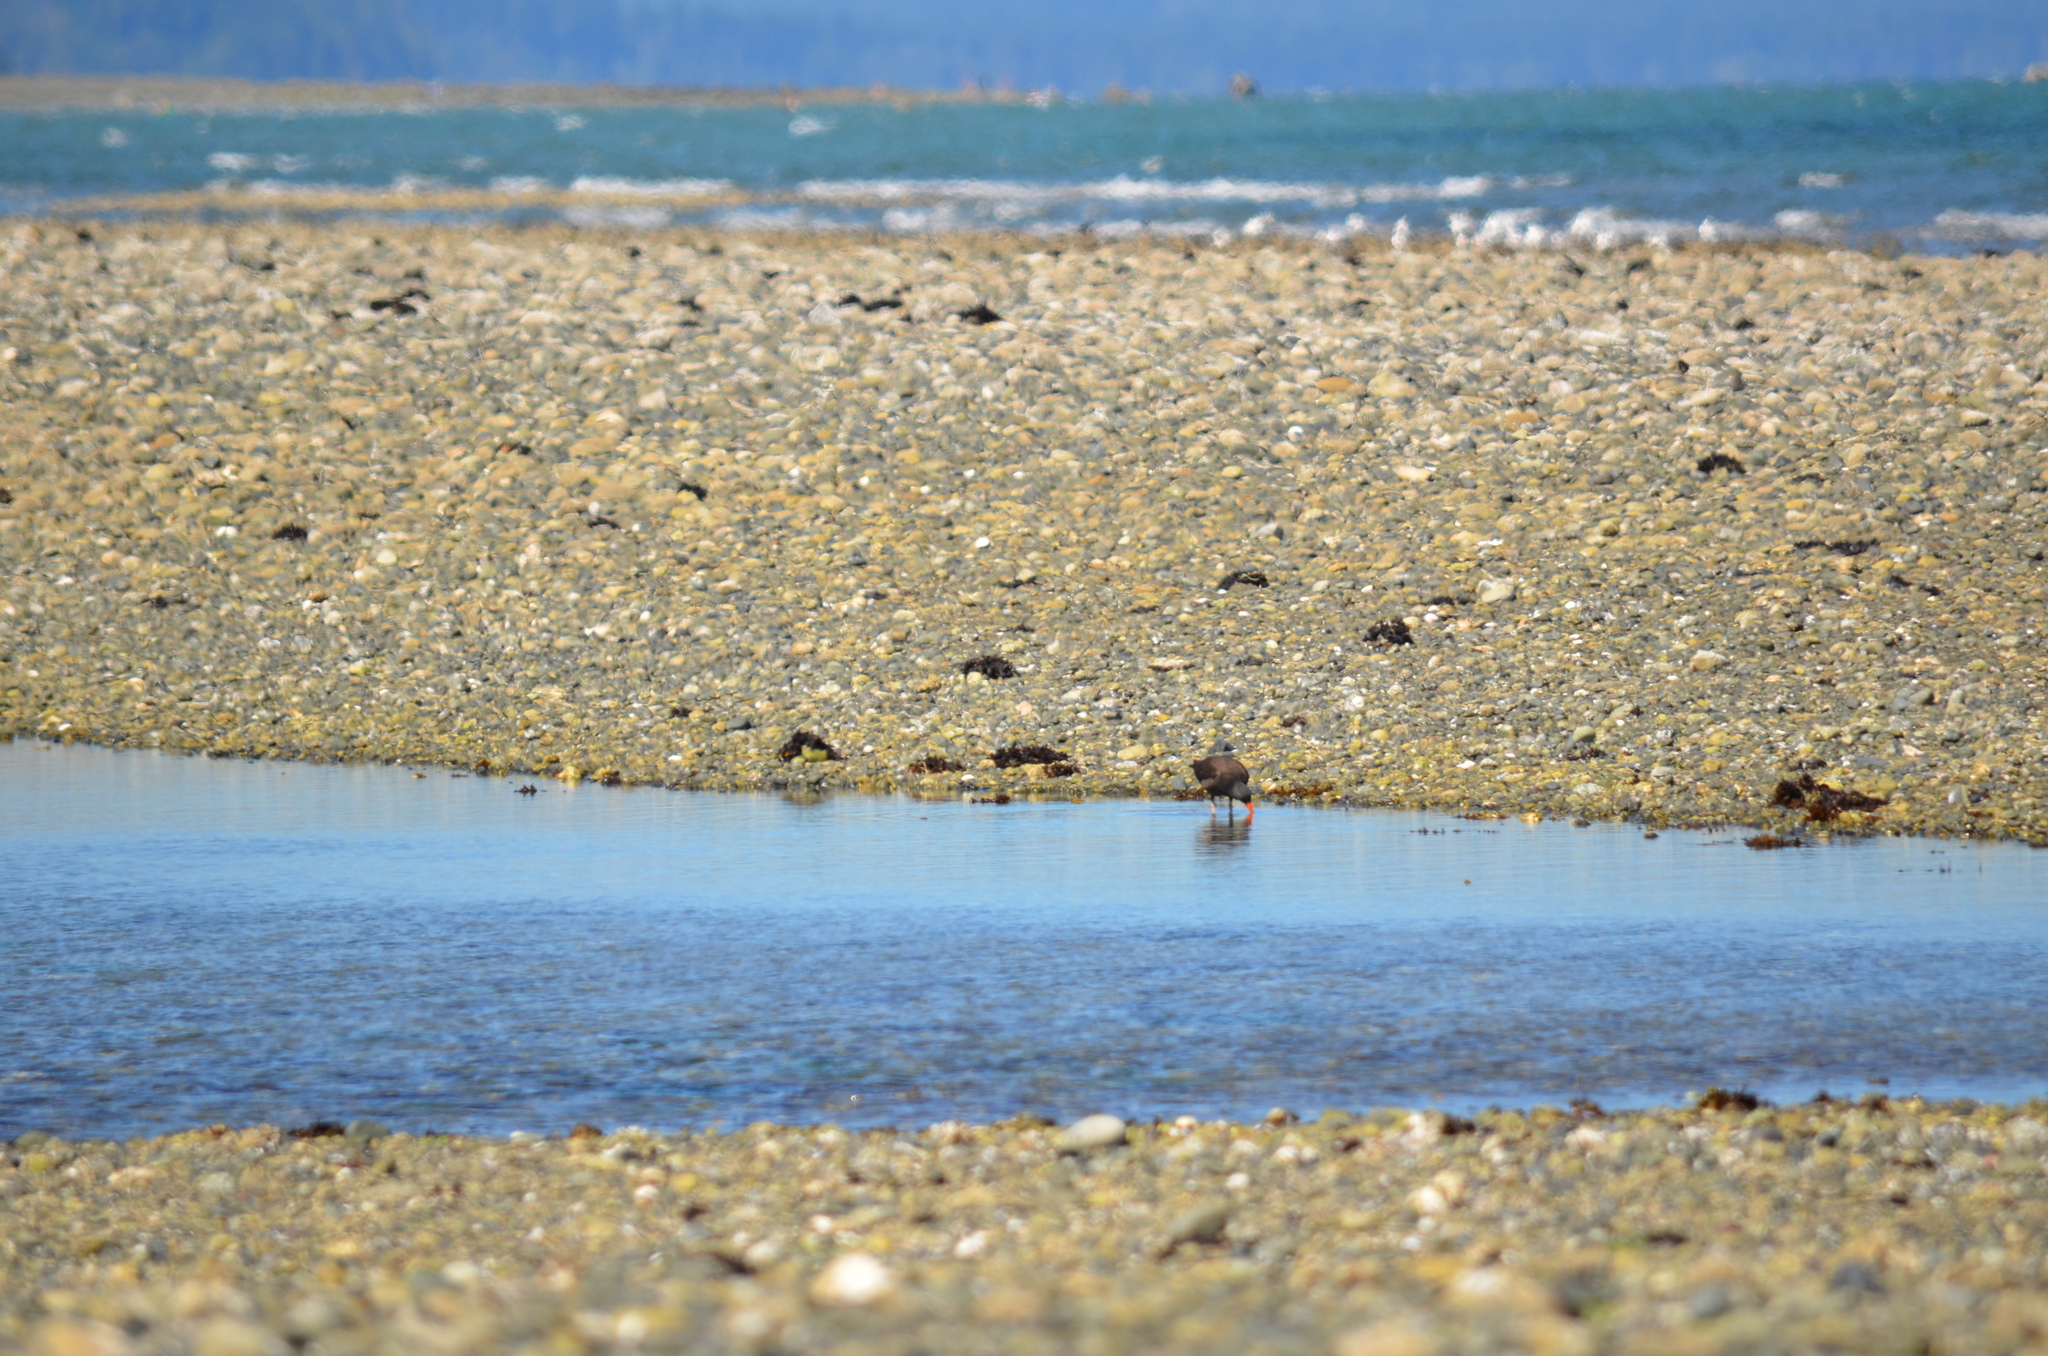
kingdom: Animalia
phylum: Chordata
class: Aves
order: Charadriiformes
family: Haematopodidae
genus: Haematopus
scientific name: Haematopus bachmani
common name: Black oystercatcher
